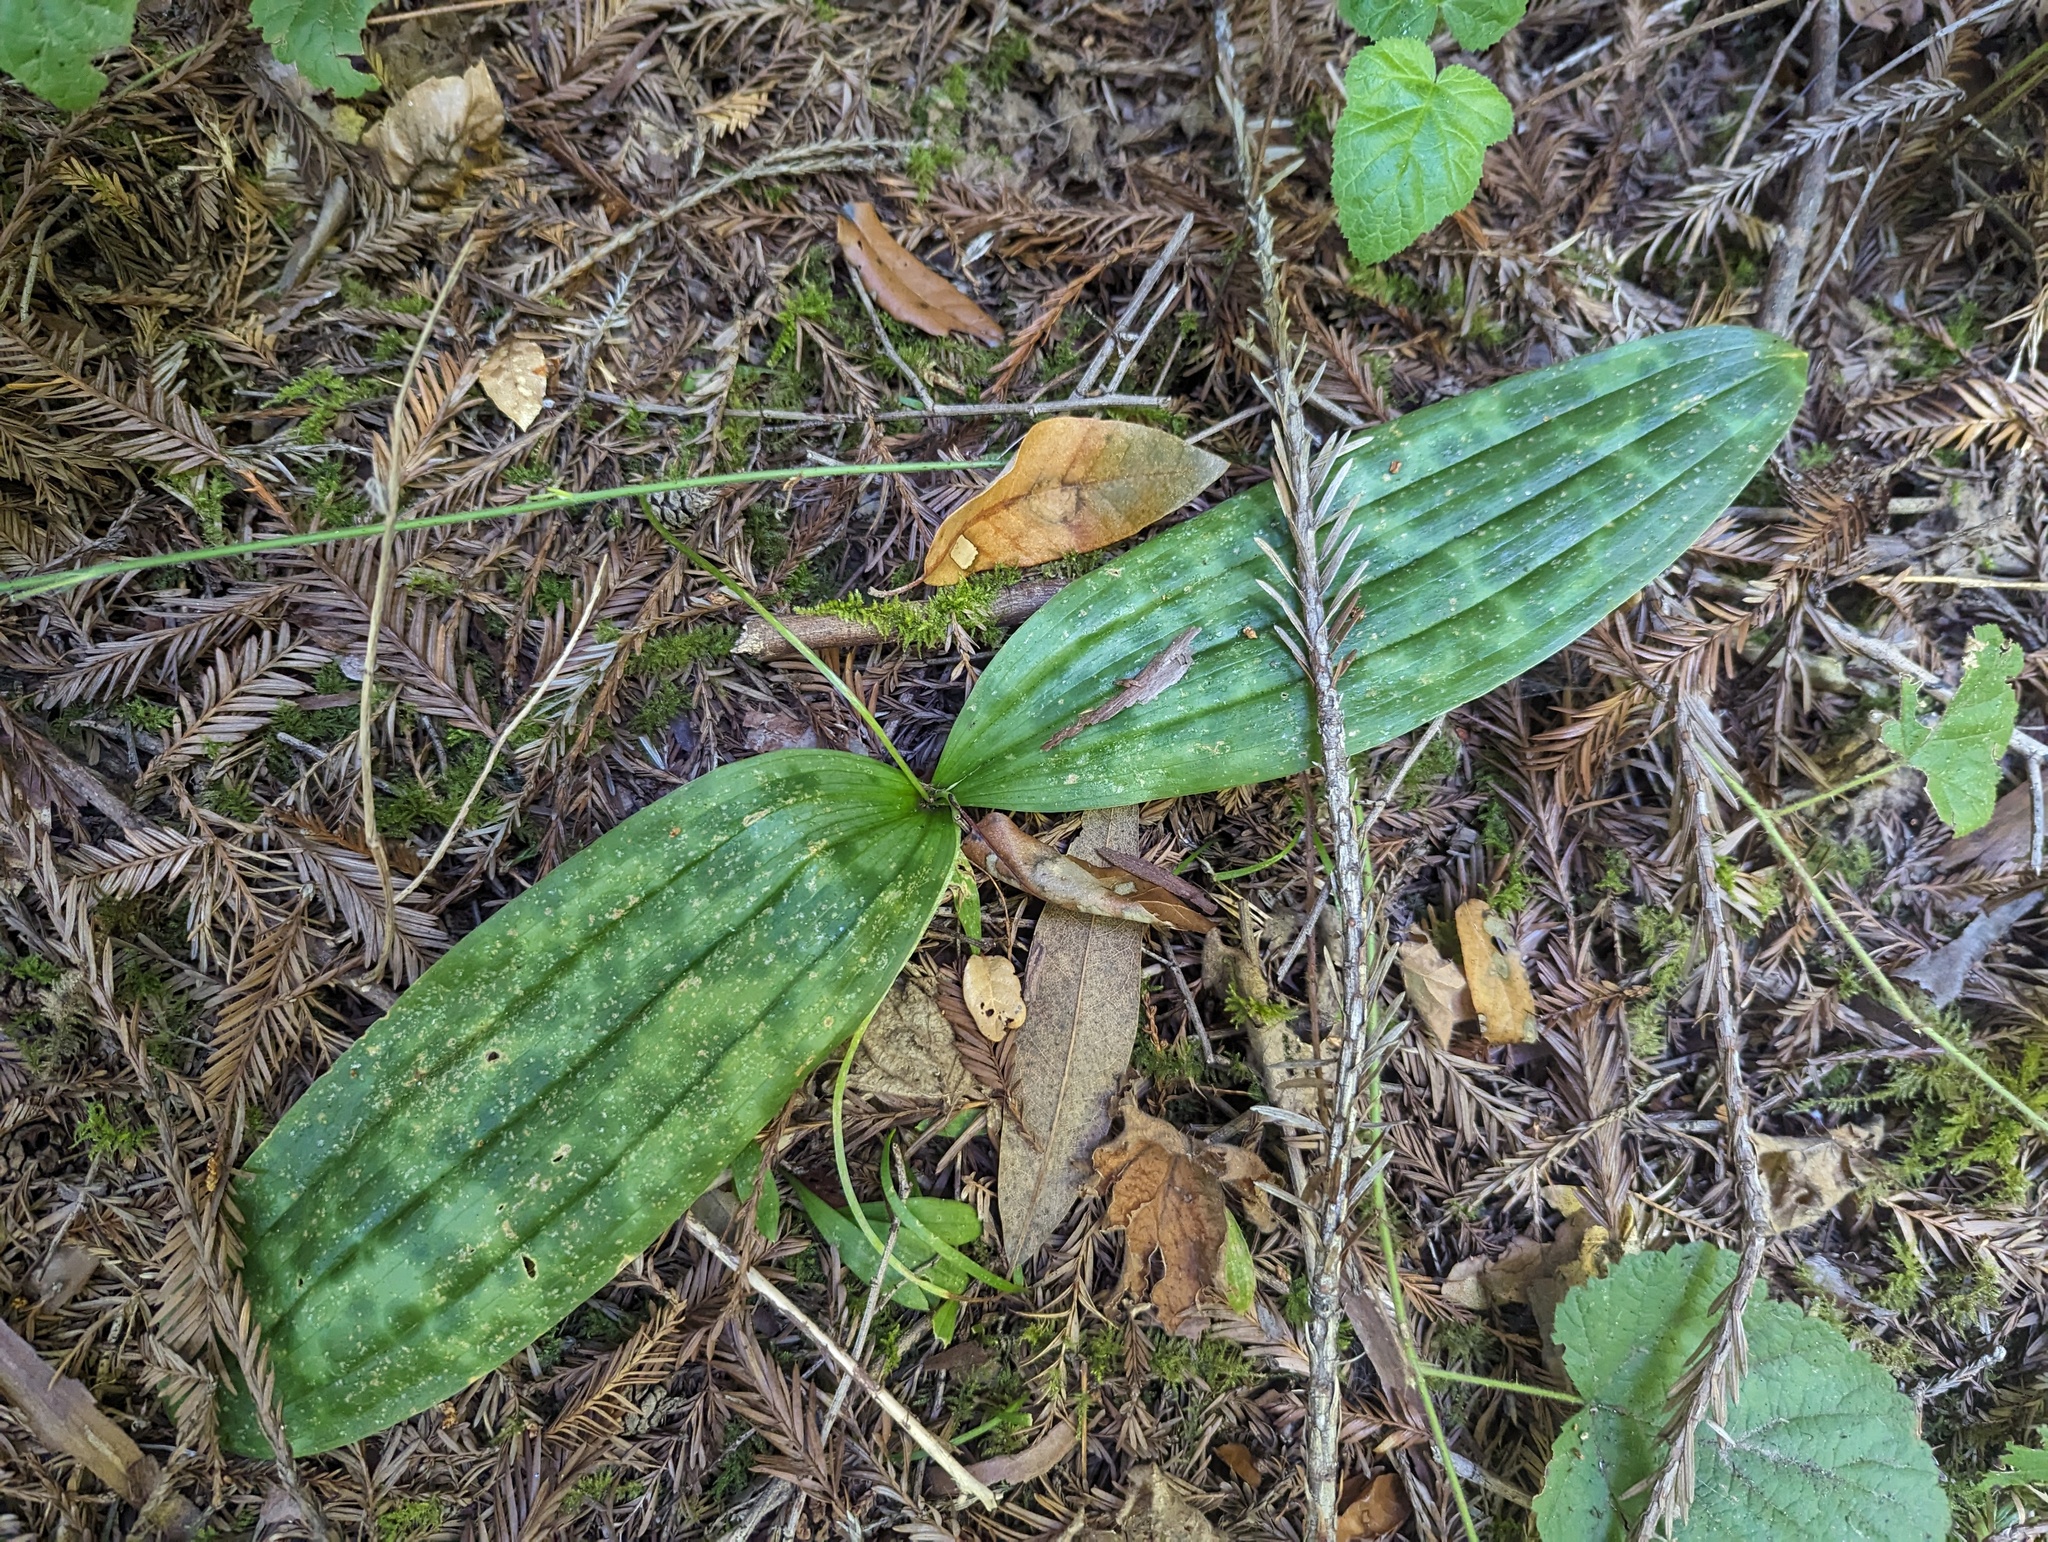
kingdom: Plantae
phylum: Tracheophyta
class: Liliopsida
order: Liliales
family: Liliaceae
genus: Scoliopus
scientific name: Scoliopus bigelovii
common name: Foetid adder's-tongue
